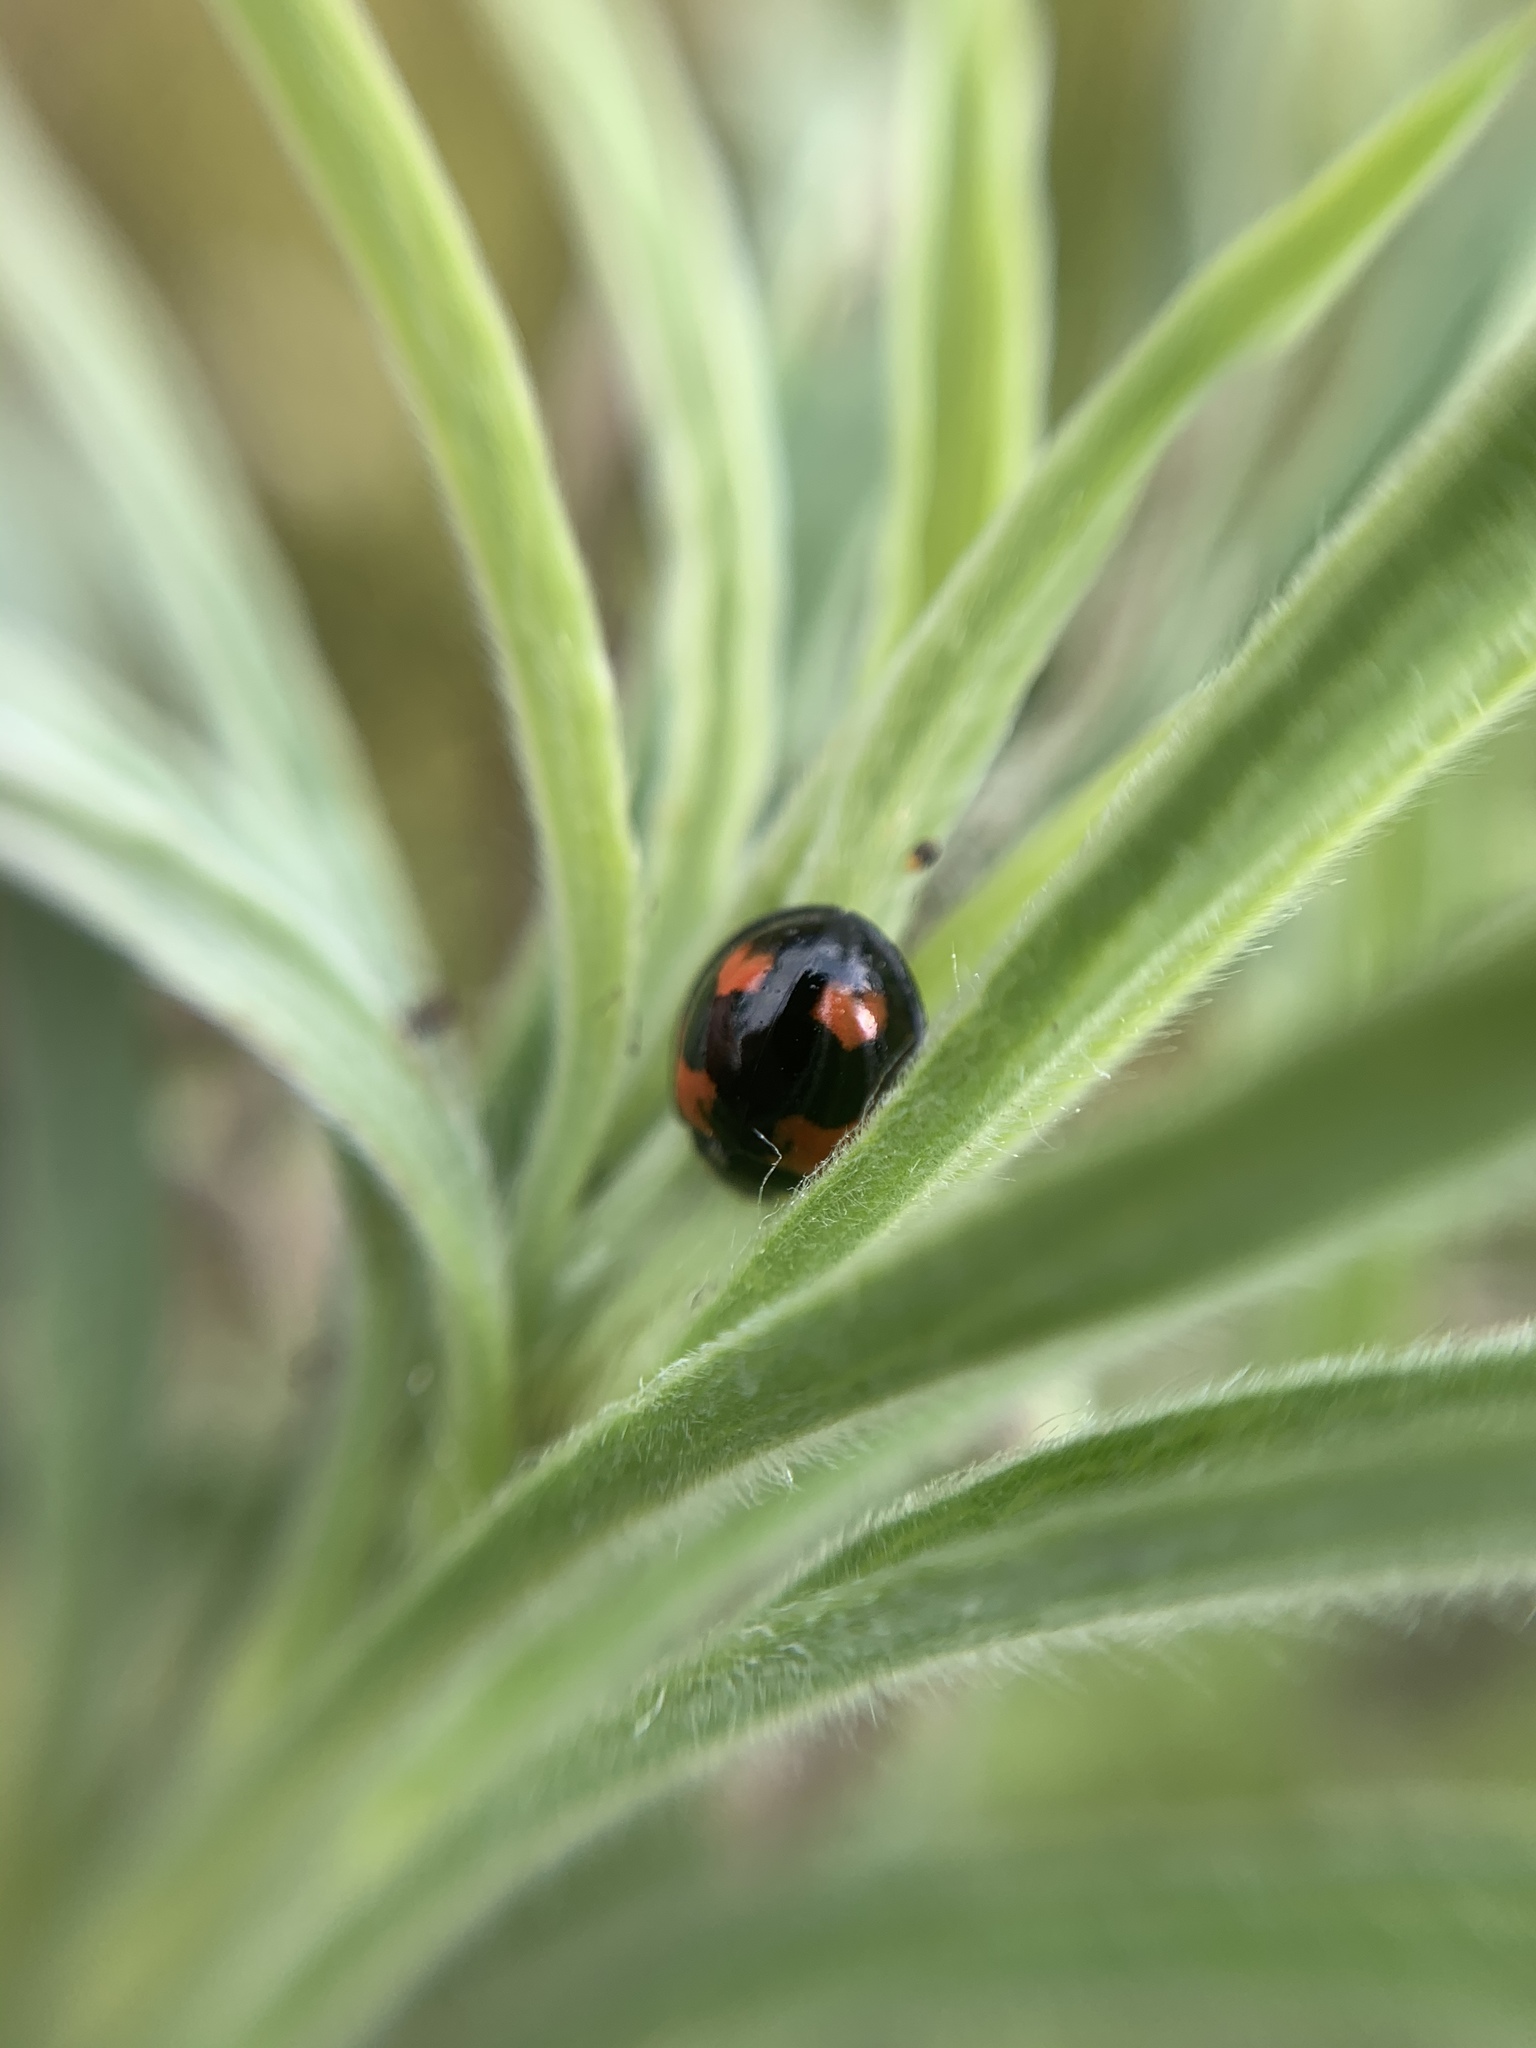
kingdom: Animalia
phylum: Arthropoda
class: Insecta
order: Coleoptera
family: Coccinellidae
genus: Cheilomenes
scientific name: Cheilomenes sexmaculata
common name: Ladybird beetle
